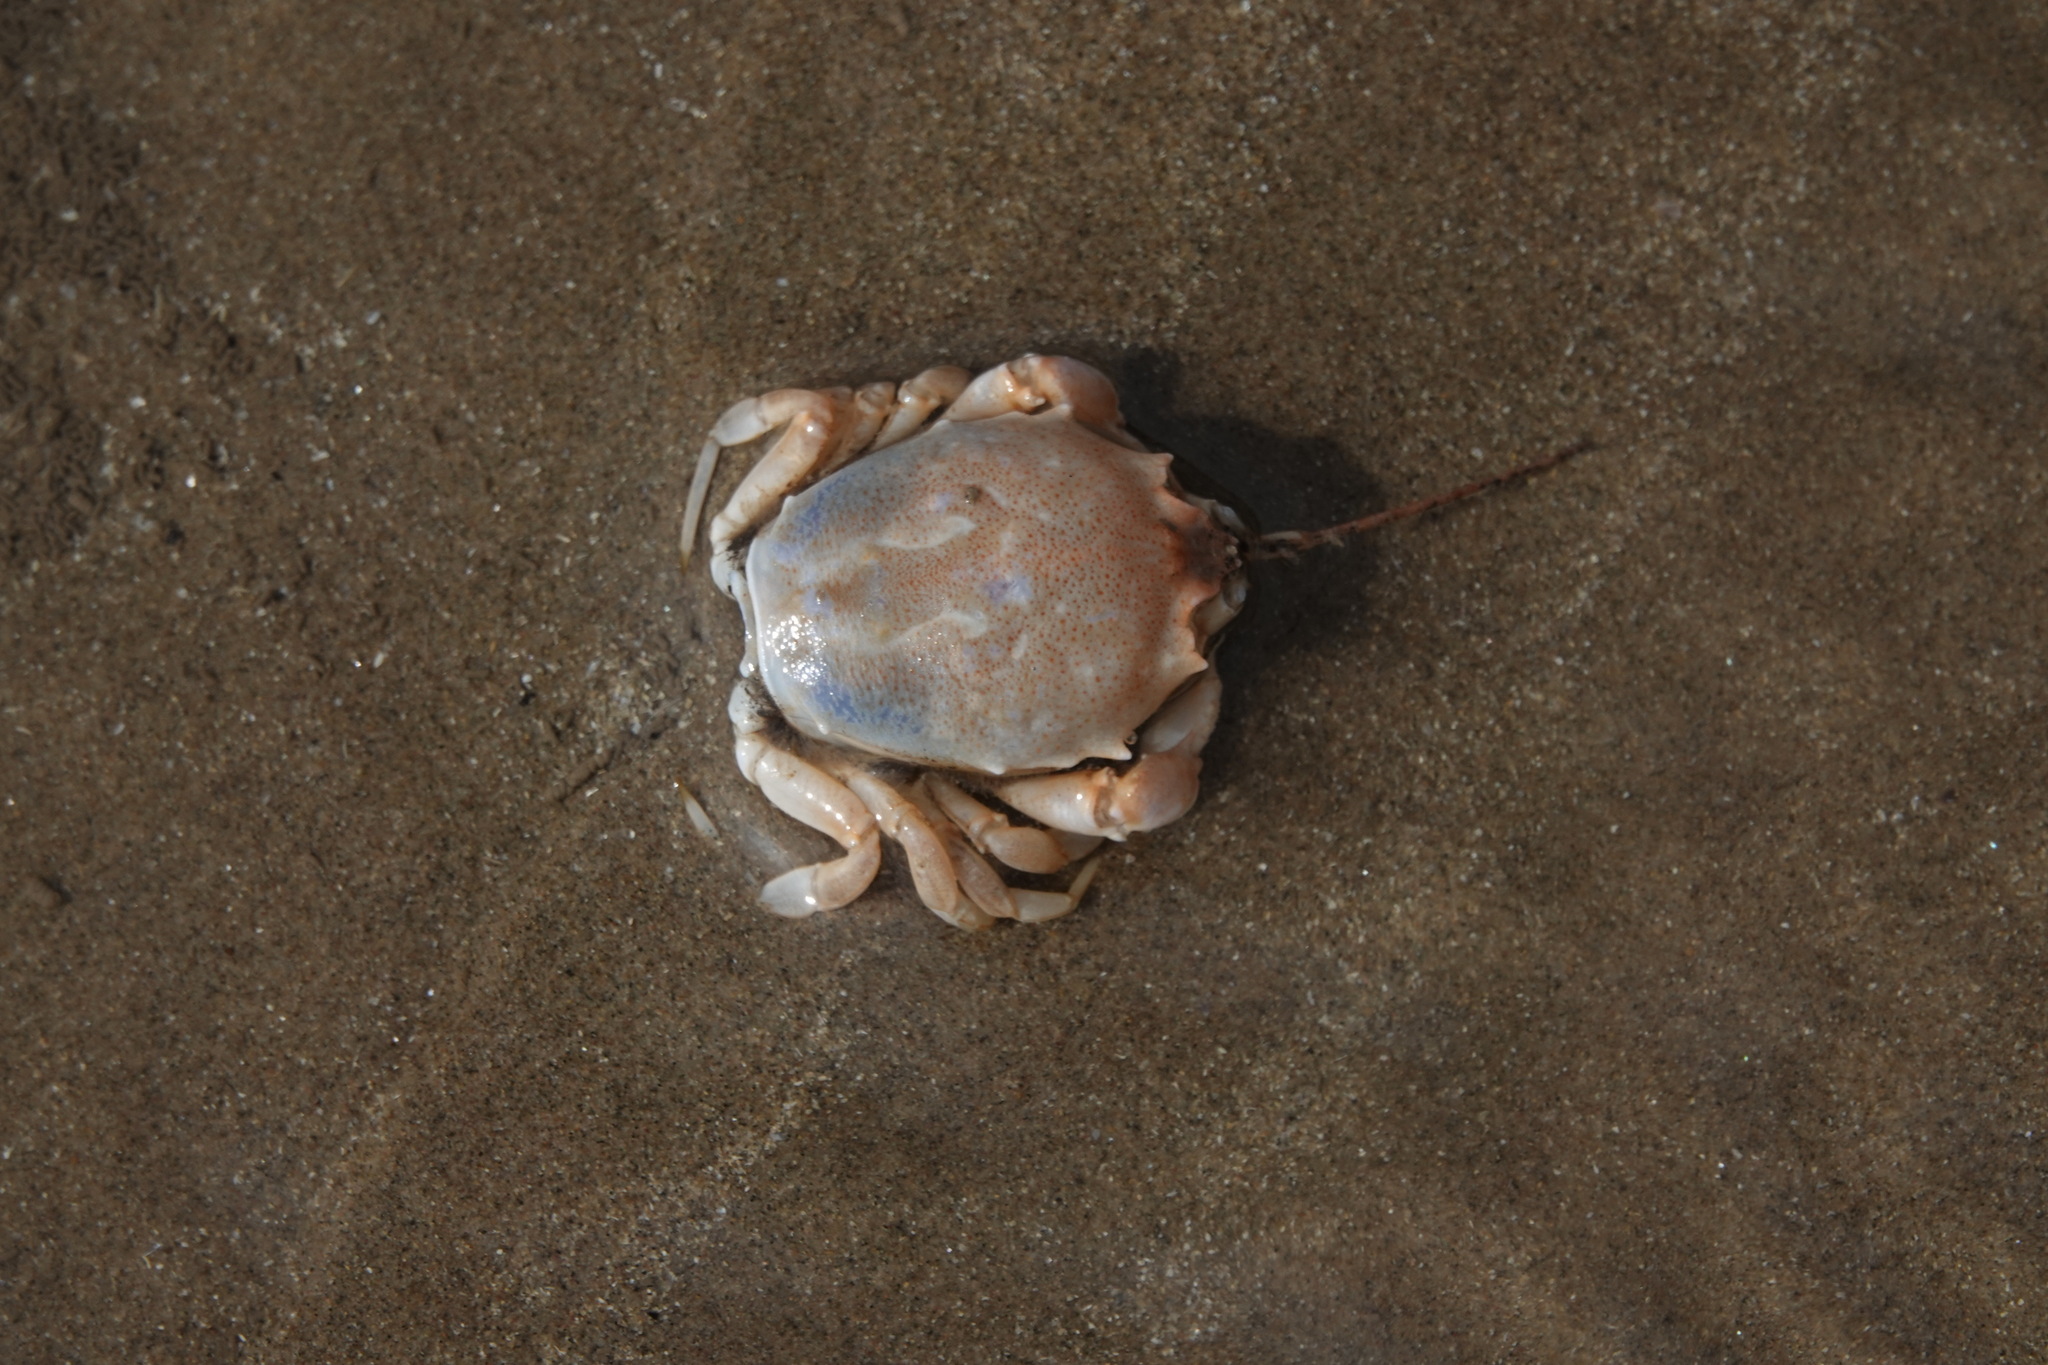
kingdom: Animalia
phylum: Arthropoda
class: Malacostraca
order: Decapoda
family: Corystidae
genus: Corystes
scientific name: Corystes cassivelaunus
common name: Masked crab
